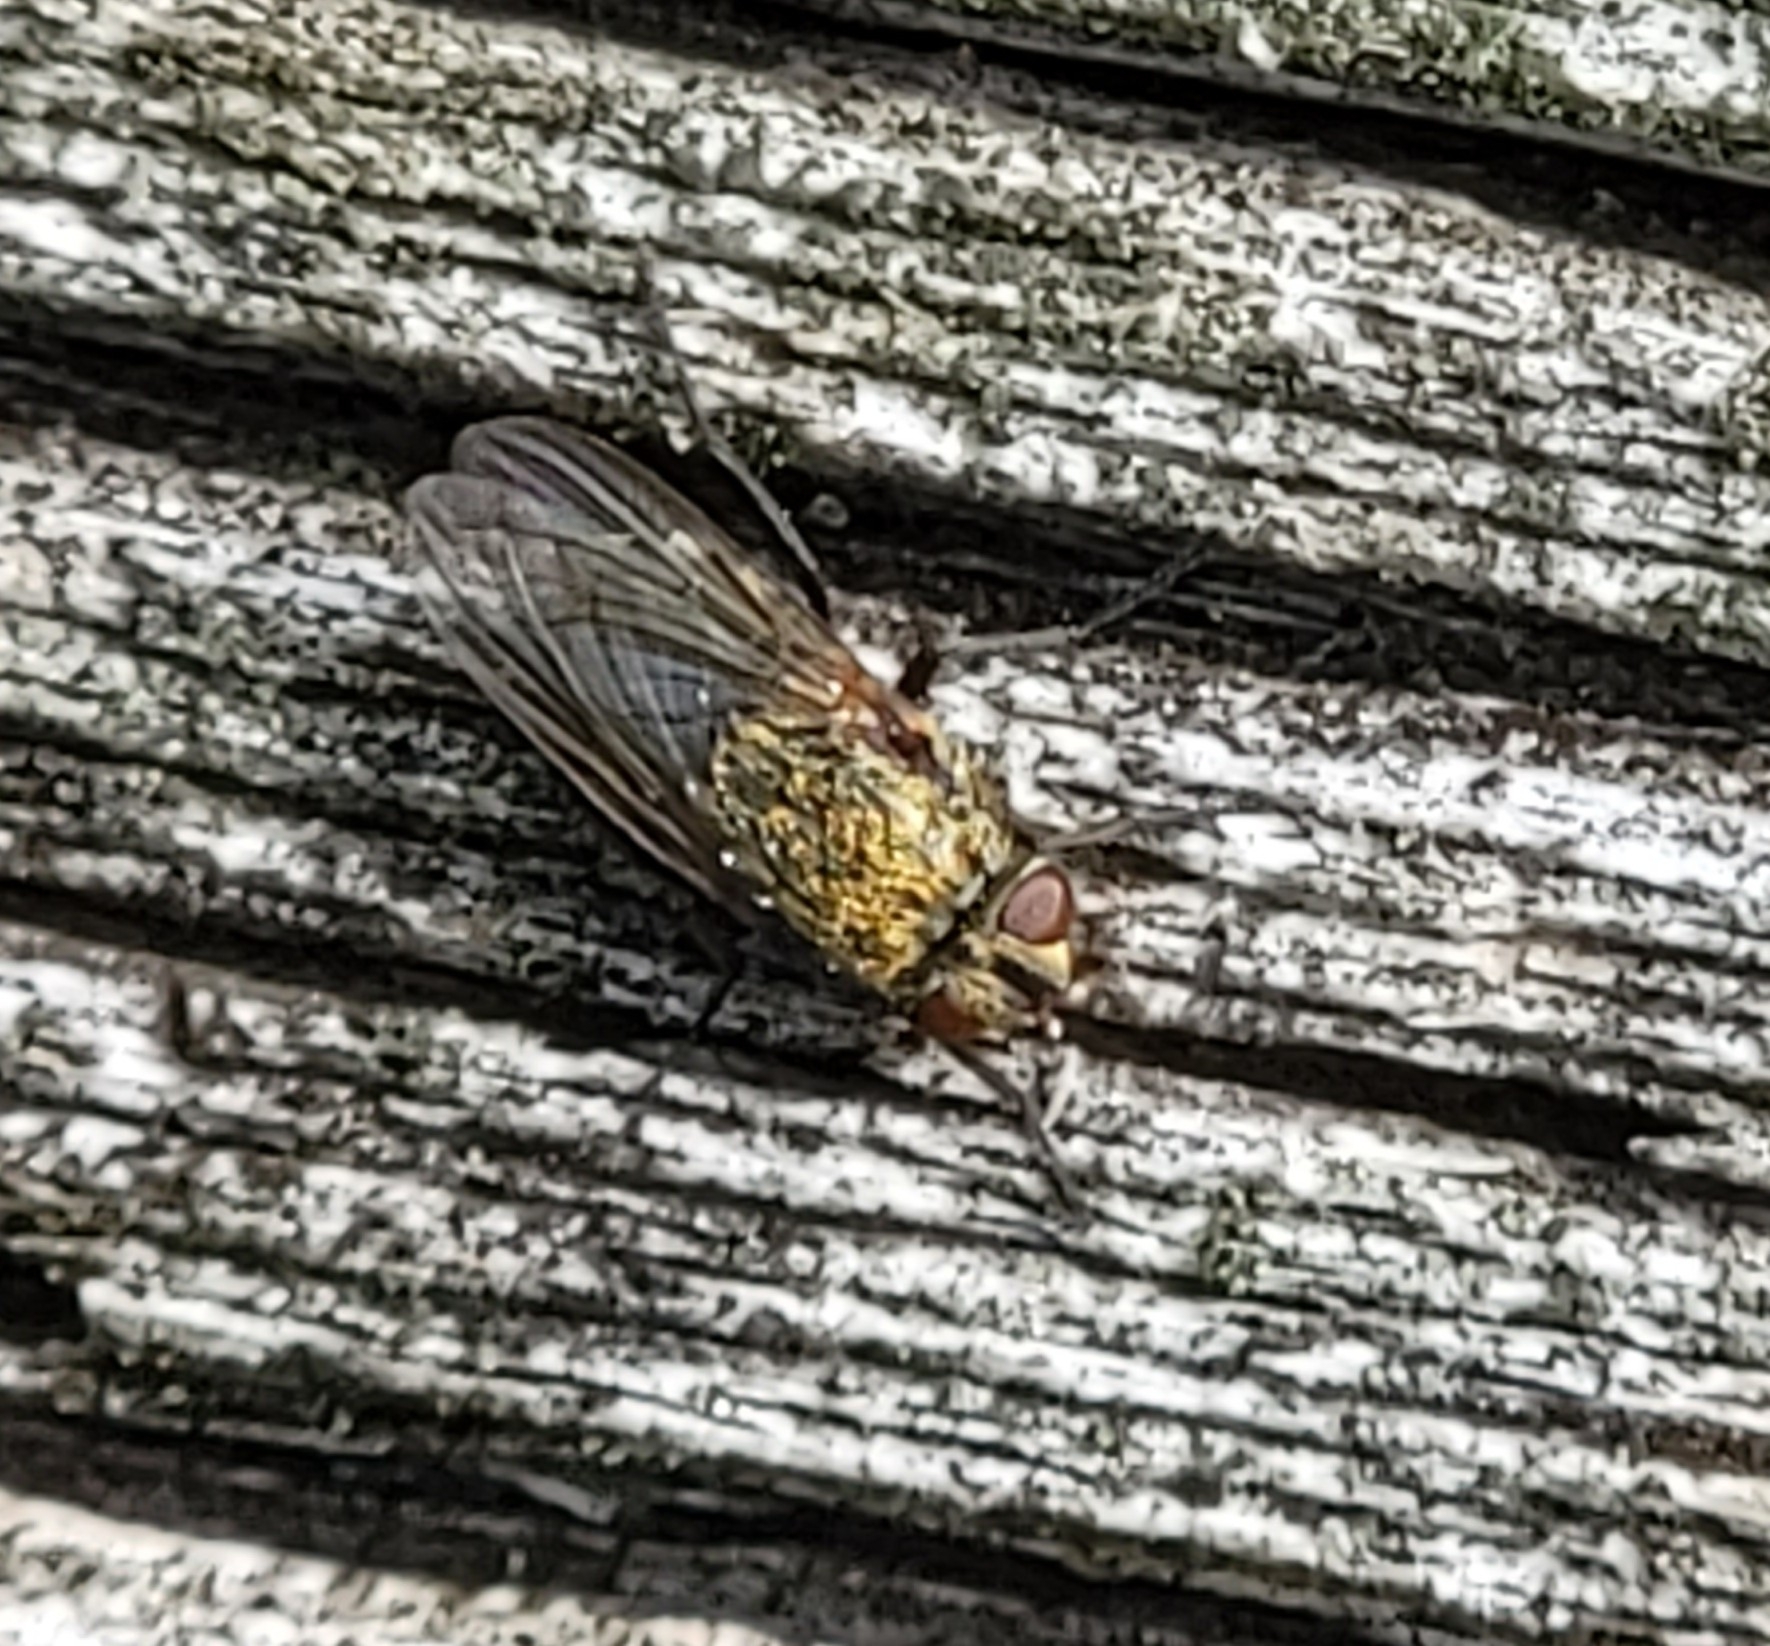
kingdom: Animalia
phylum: Arthropoda
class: Insecta
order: Diptera
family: Polleniidae
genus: Pollenia
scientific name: Pollenia
